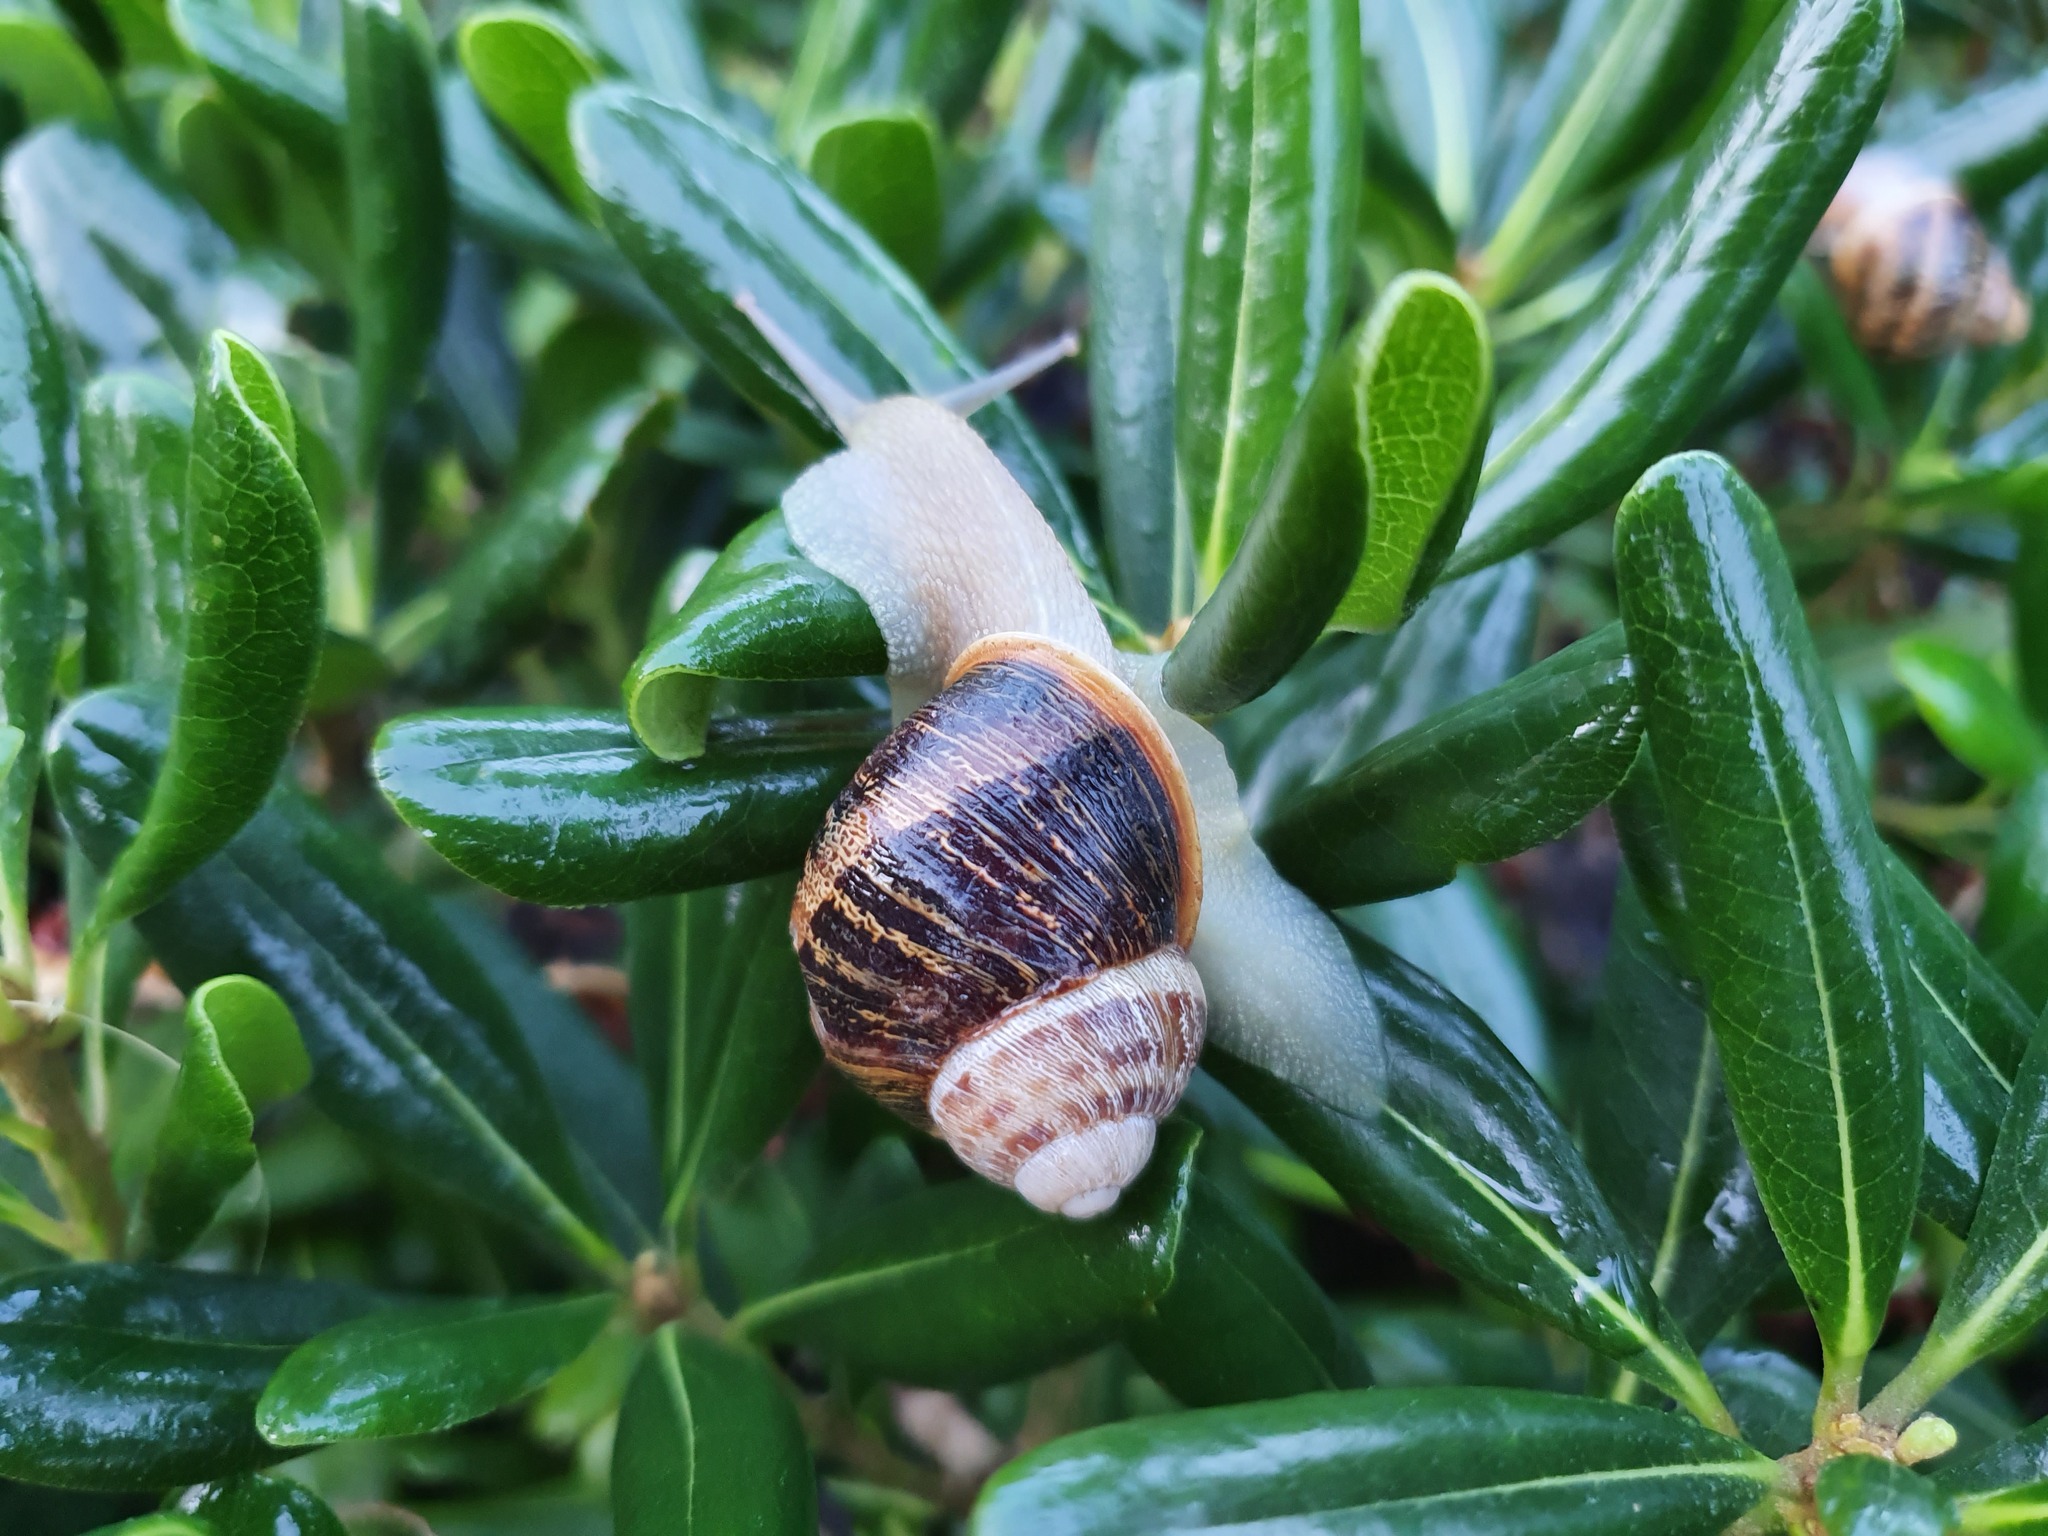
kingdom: Animalia
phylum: Mollusca
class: Gastropoda
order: Stylommatophora
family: Helicidae
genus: Cornu
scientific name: Cornu aspersum
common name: Brown garden snail
